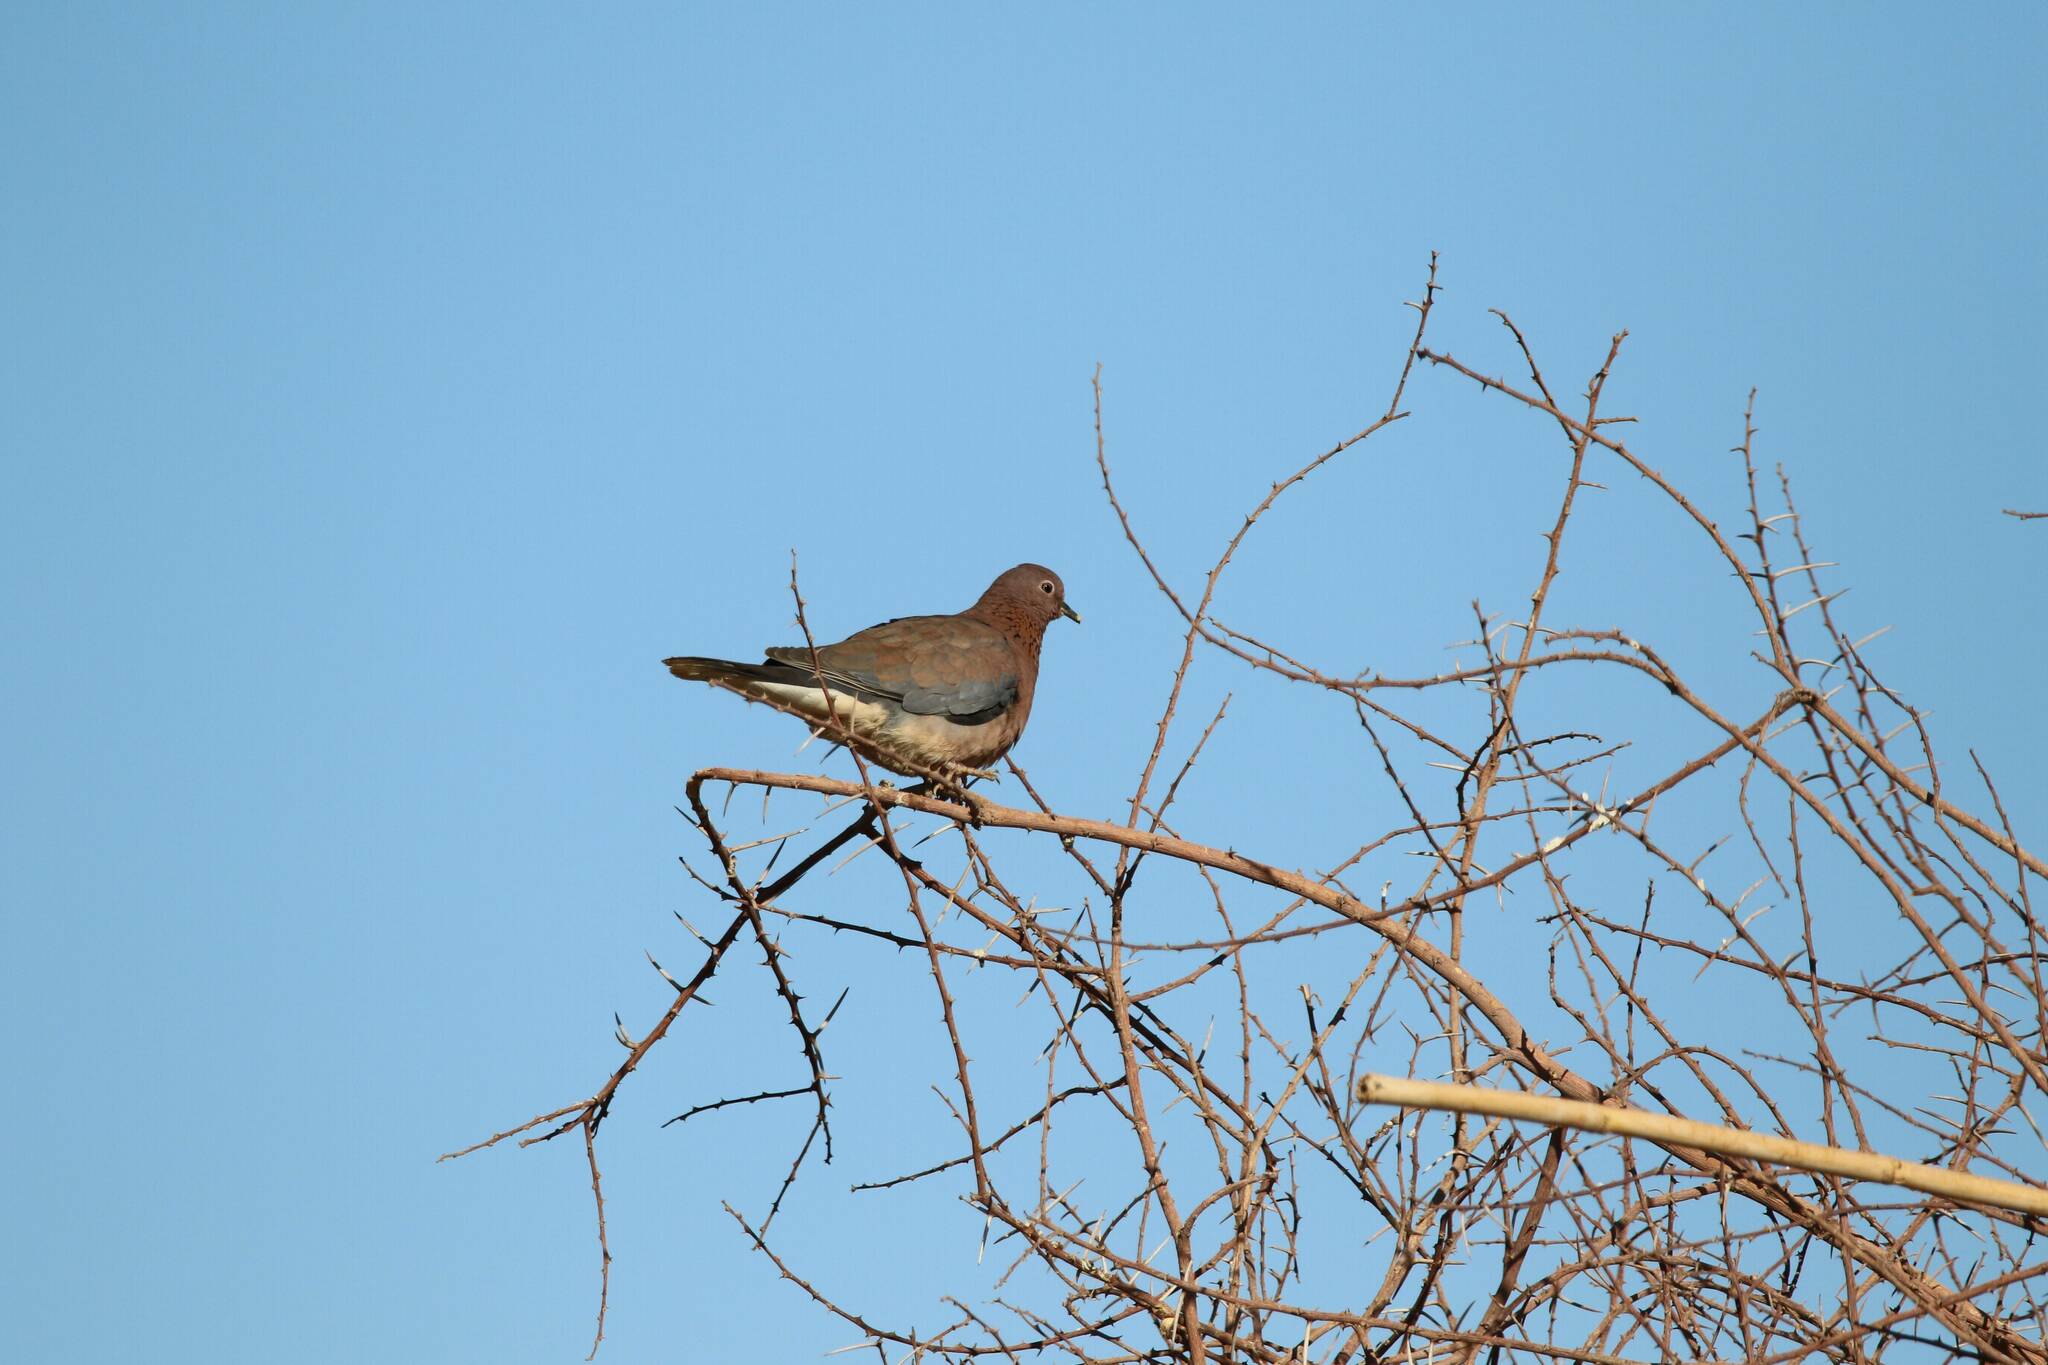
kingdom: Animalia
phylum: Chordata
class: Aves
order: Columbiformes
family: Columbidae
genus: Spilopelia
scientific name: Spilopelia senegalensis
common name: Laughing dove
